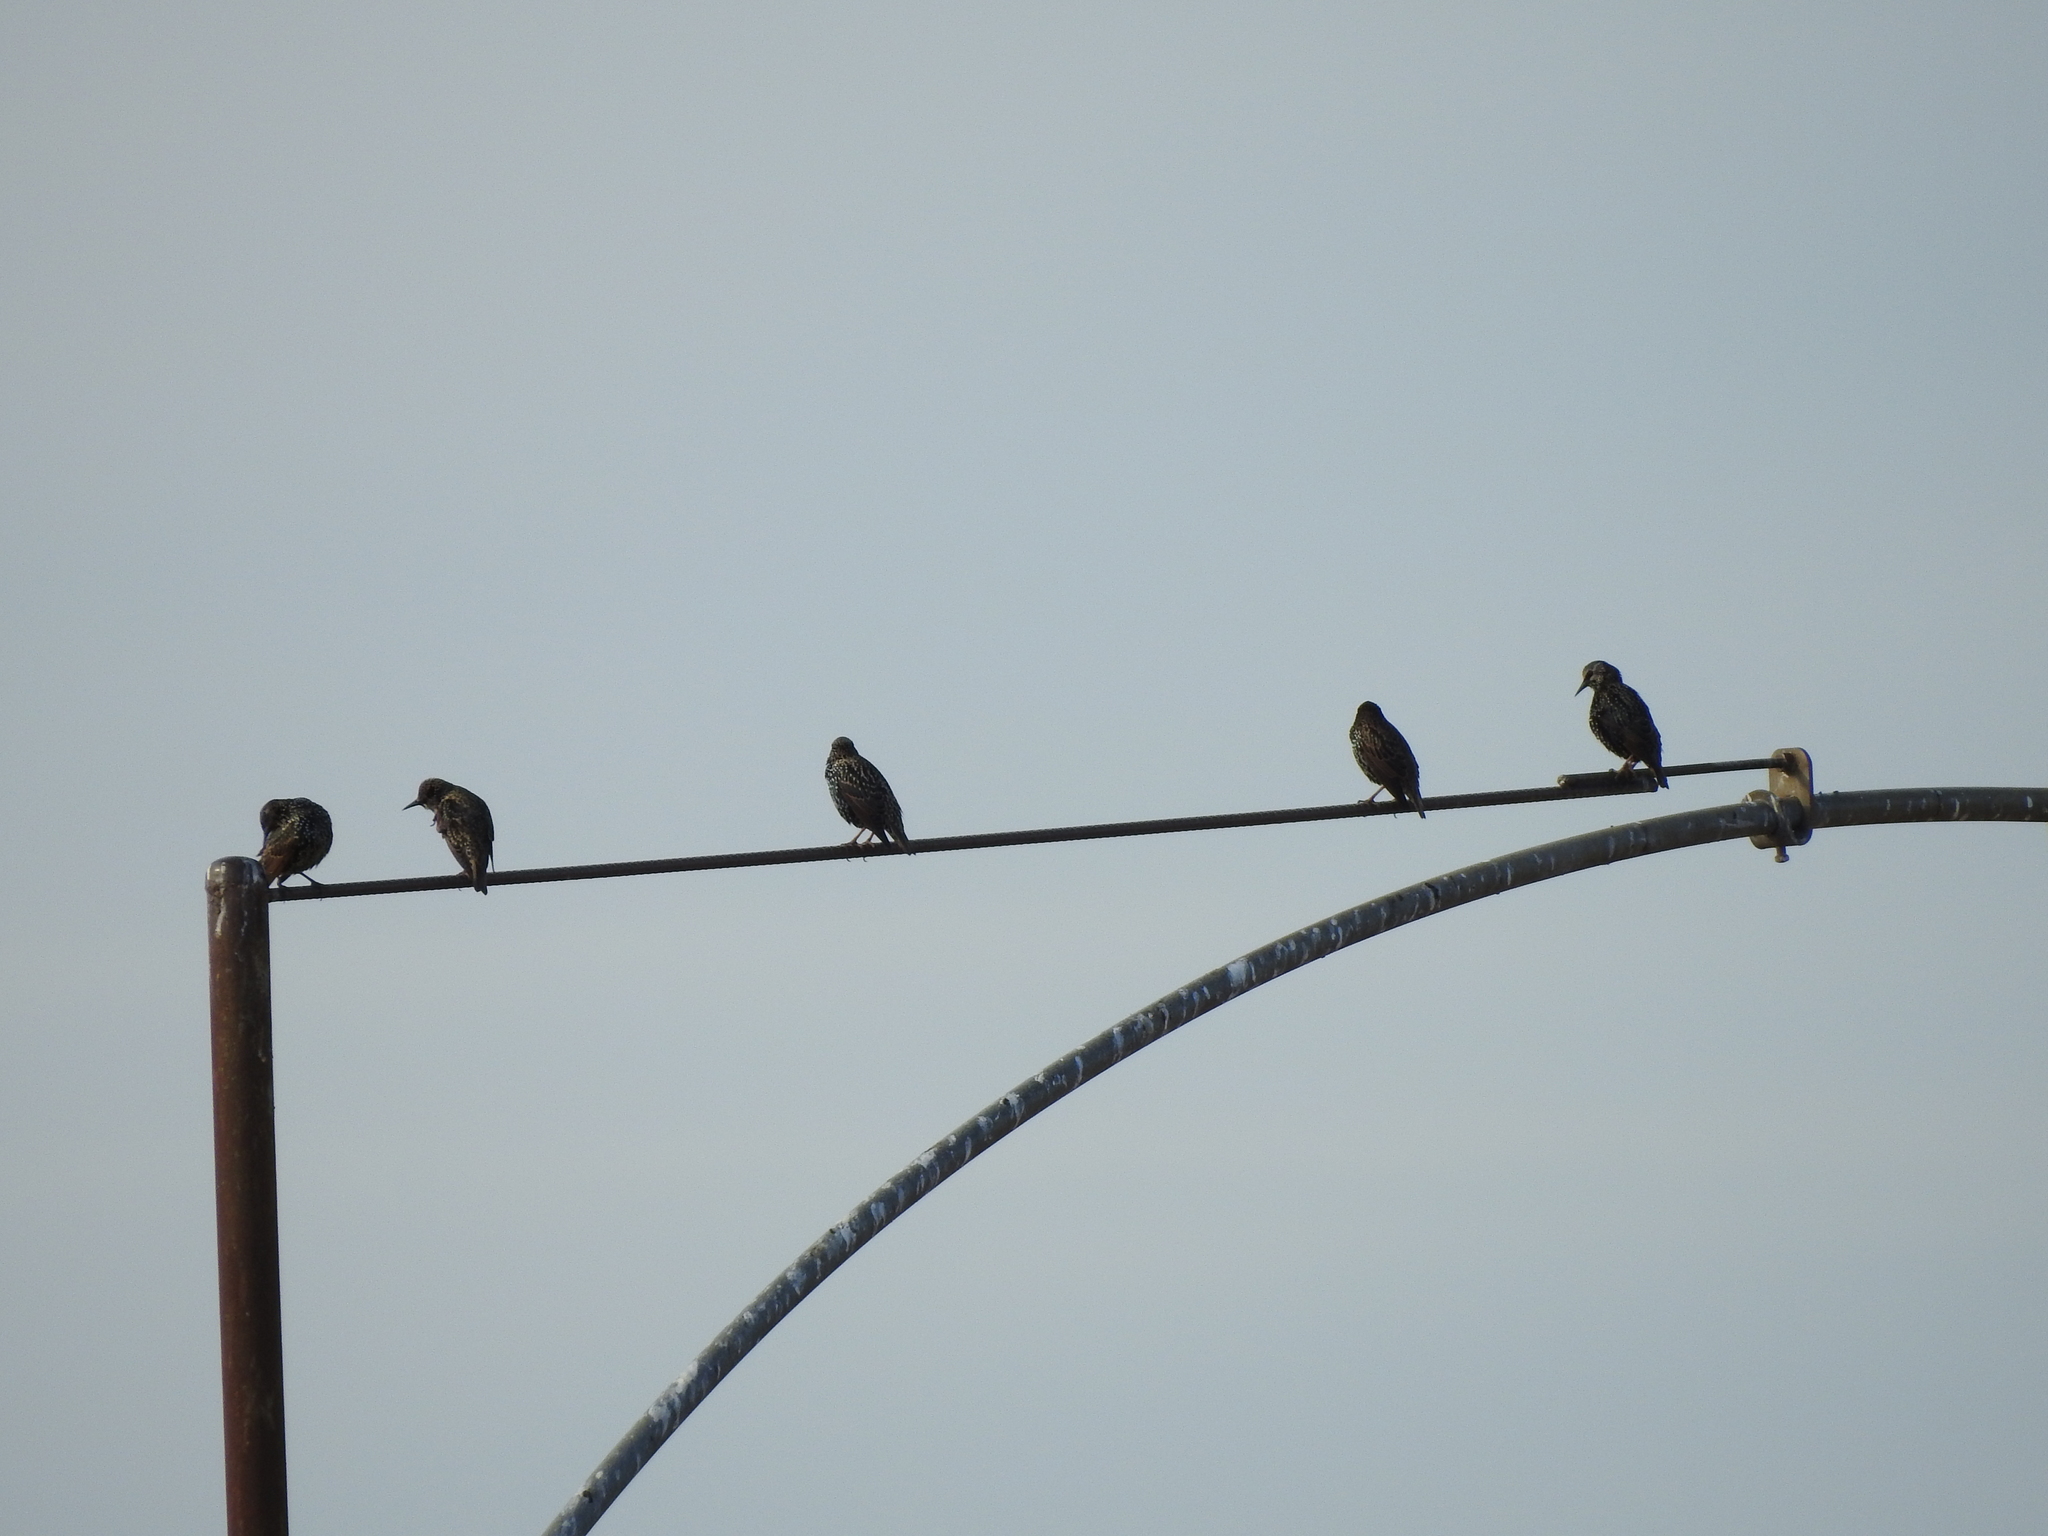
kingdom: Animalia
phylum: Chordata
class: Aves
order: Passeriformes
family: Sturnidae
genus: Sturnus
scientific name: Sturnus vulgaris
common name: Common starling
